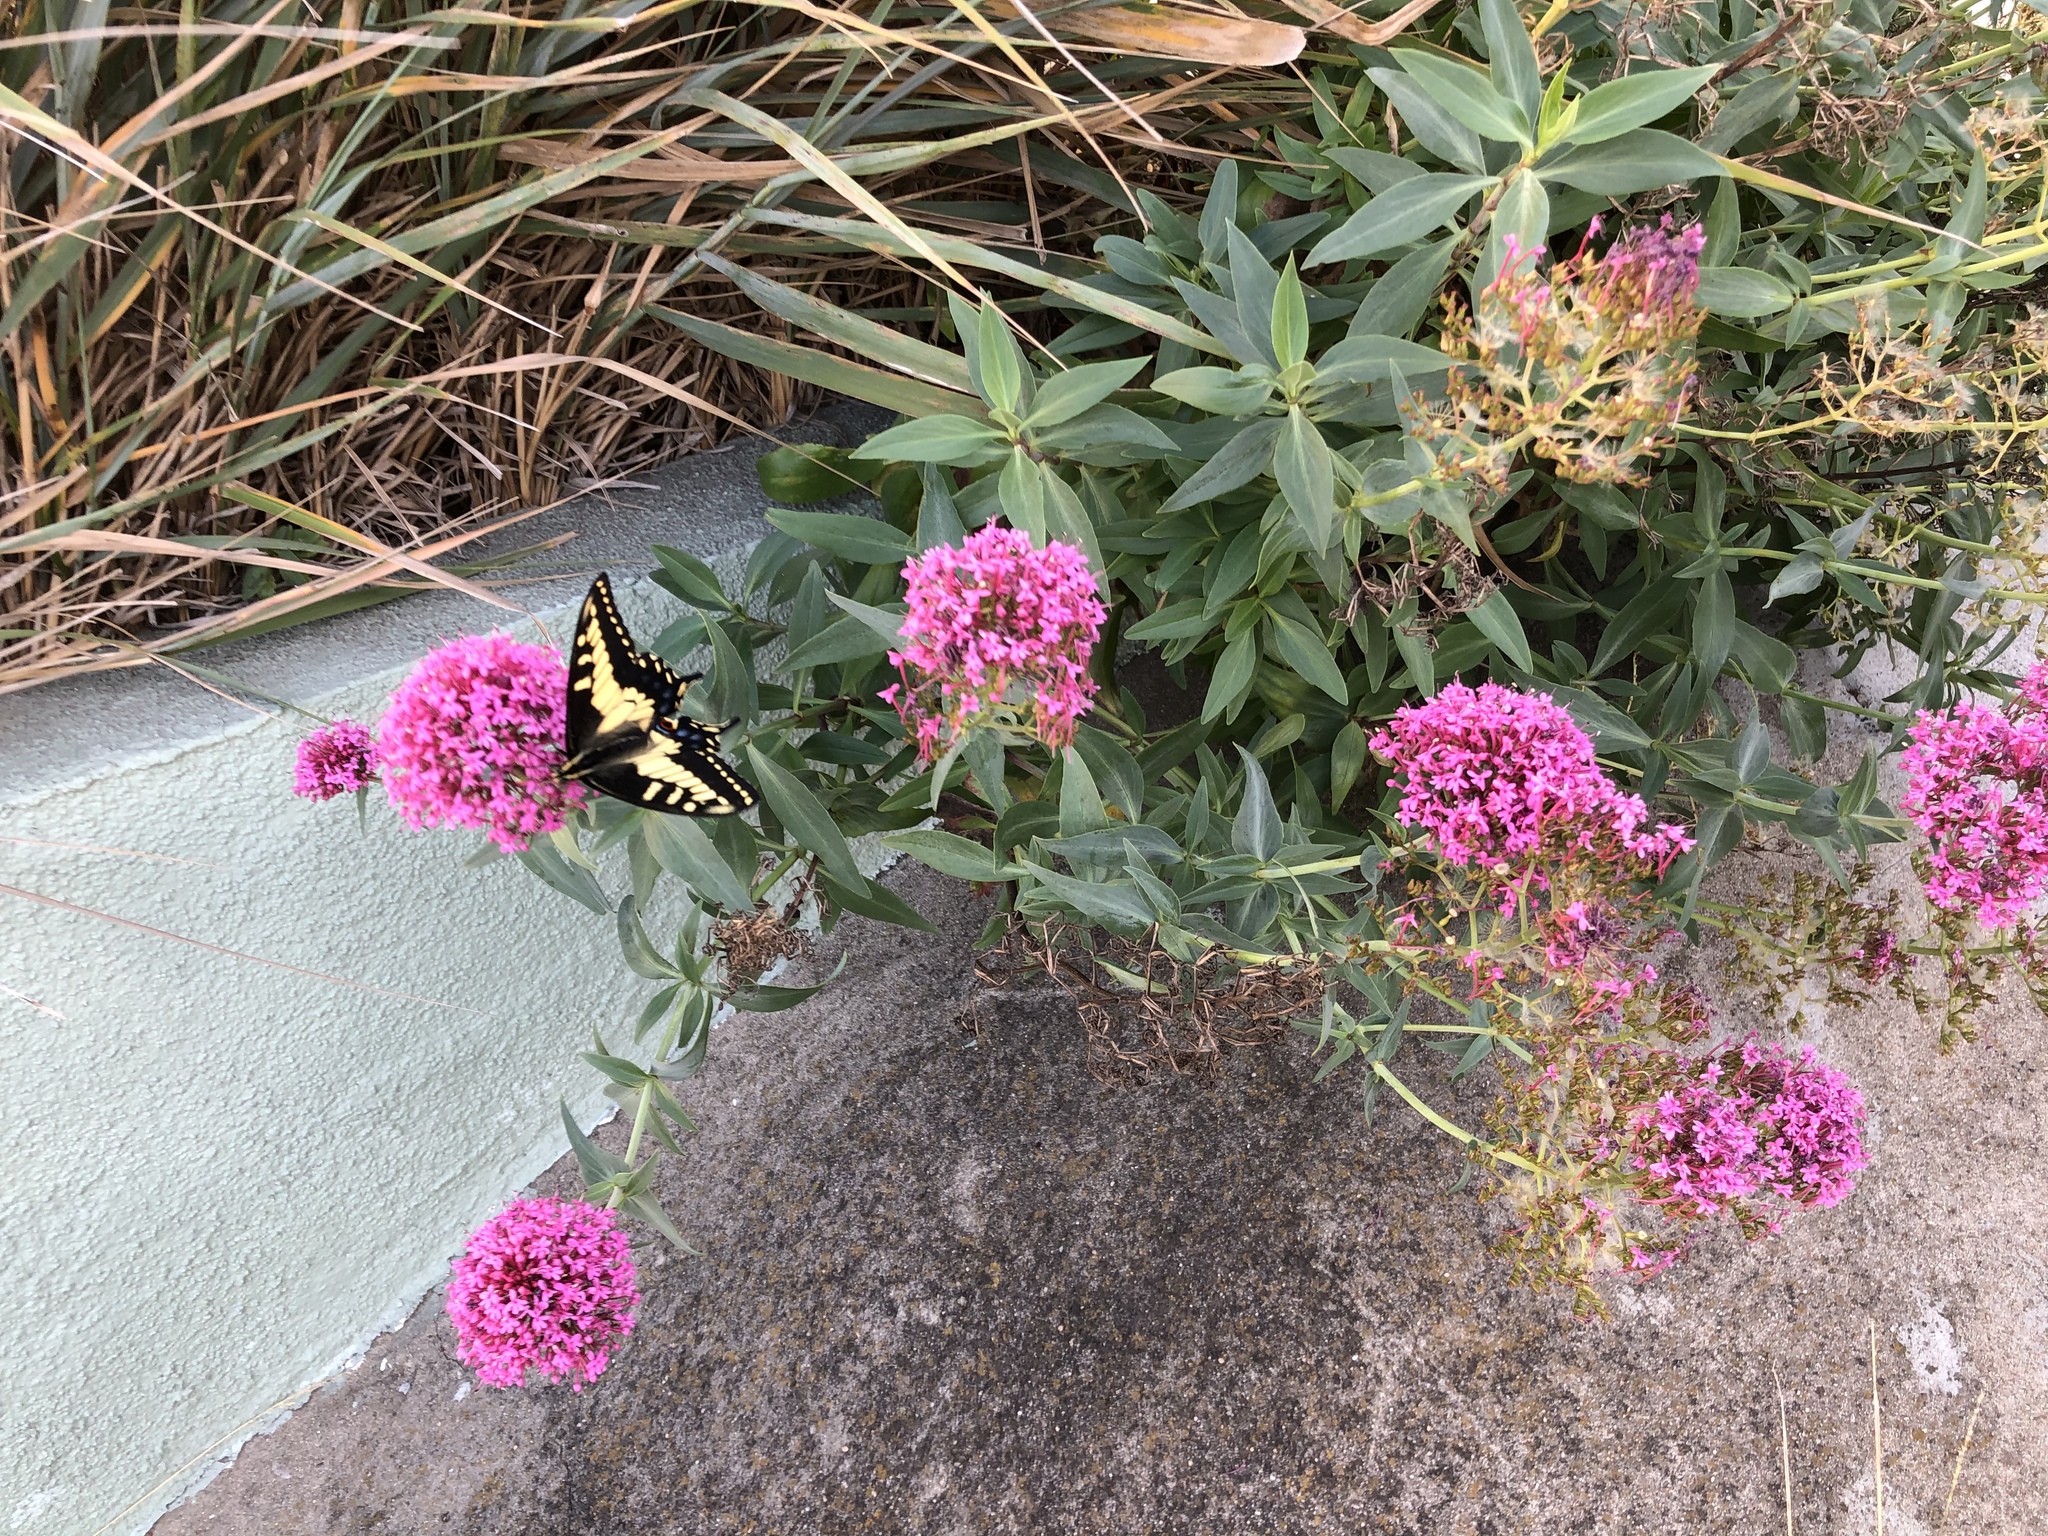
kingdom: Animalia
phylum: Arthropoda
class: Insecta
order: Lepidoptera
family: Papilionidae
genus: Papilio
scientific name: Papilio zelicaon
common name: Anise swallowtail
